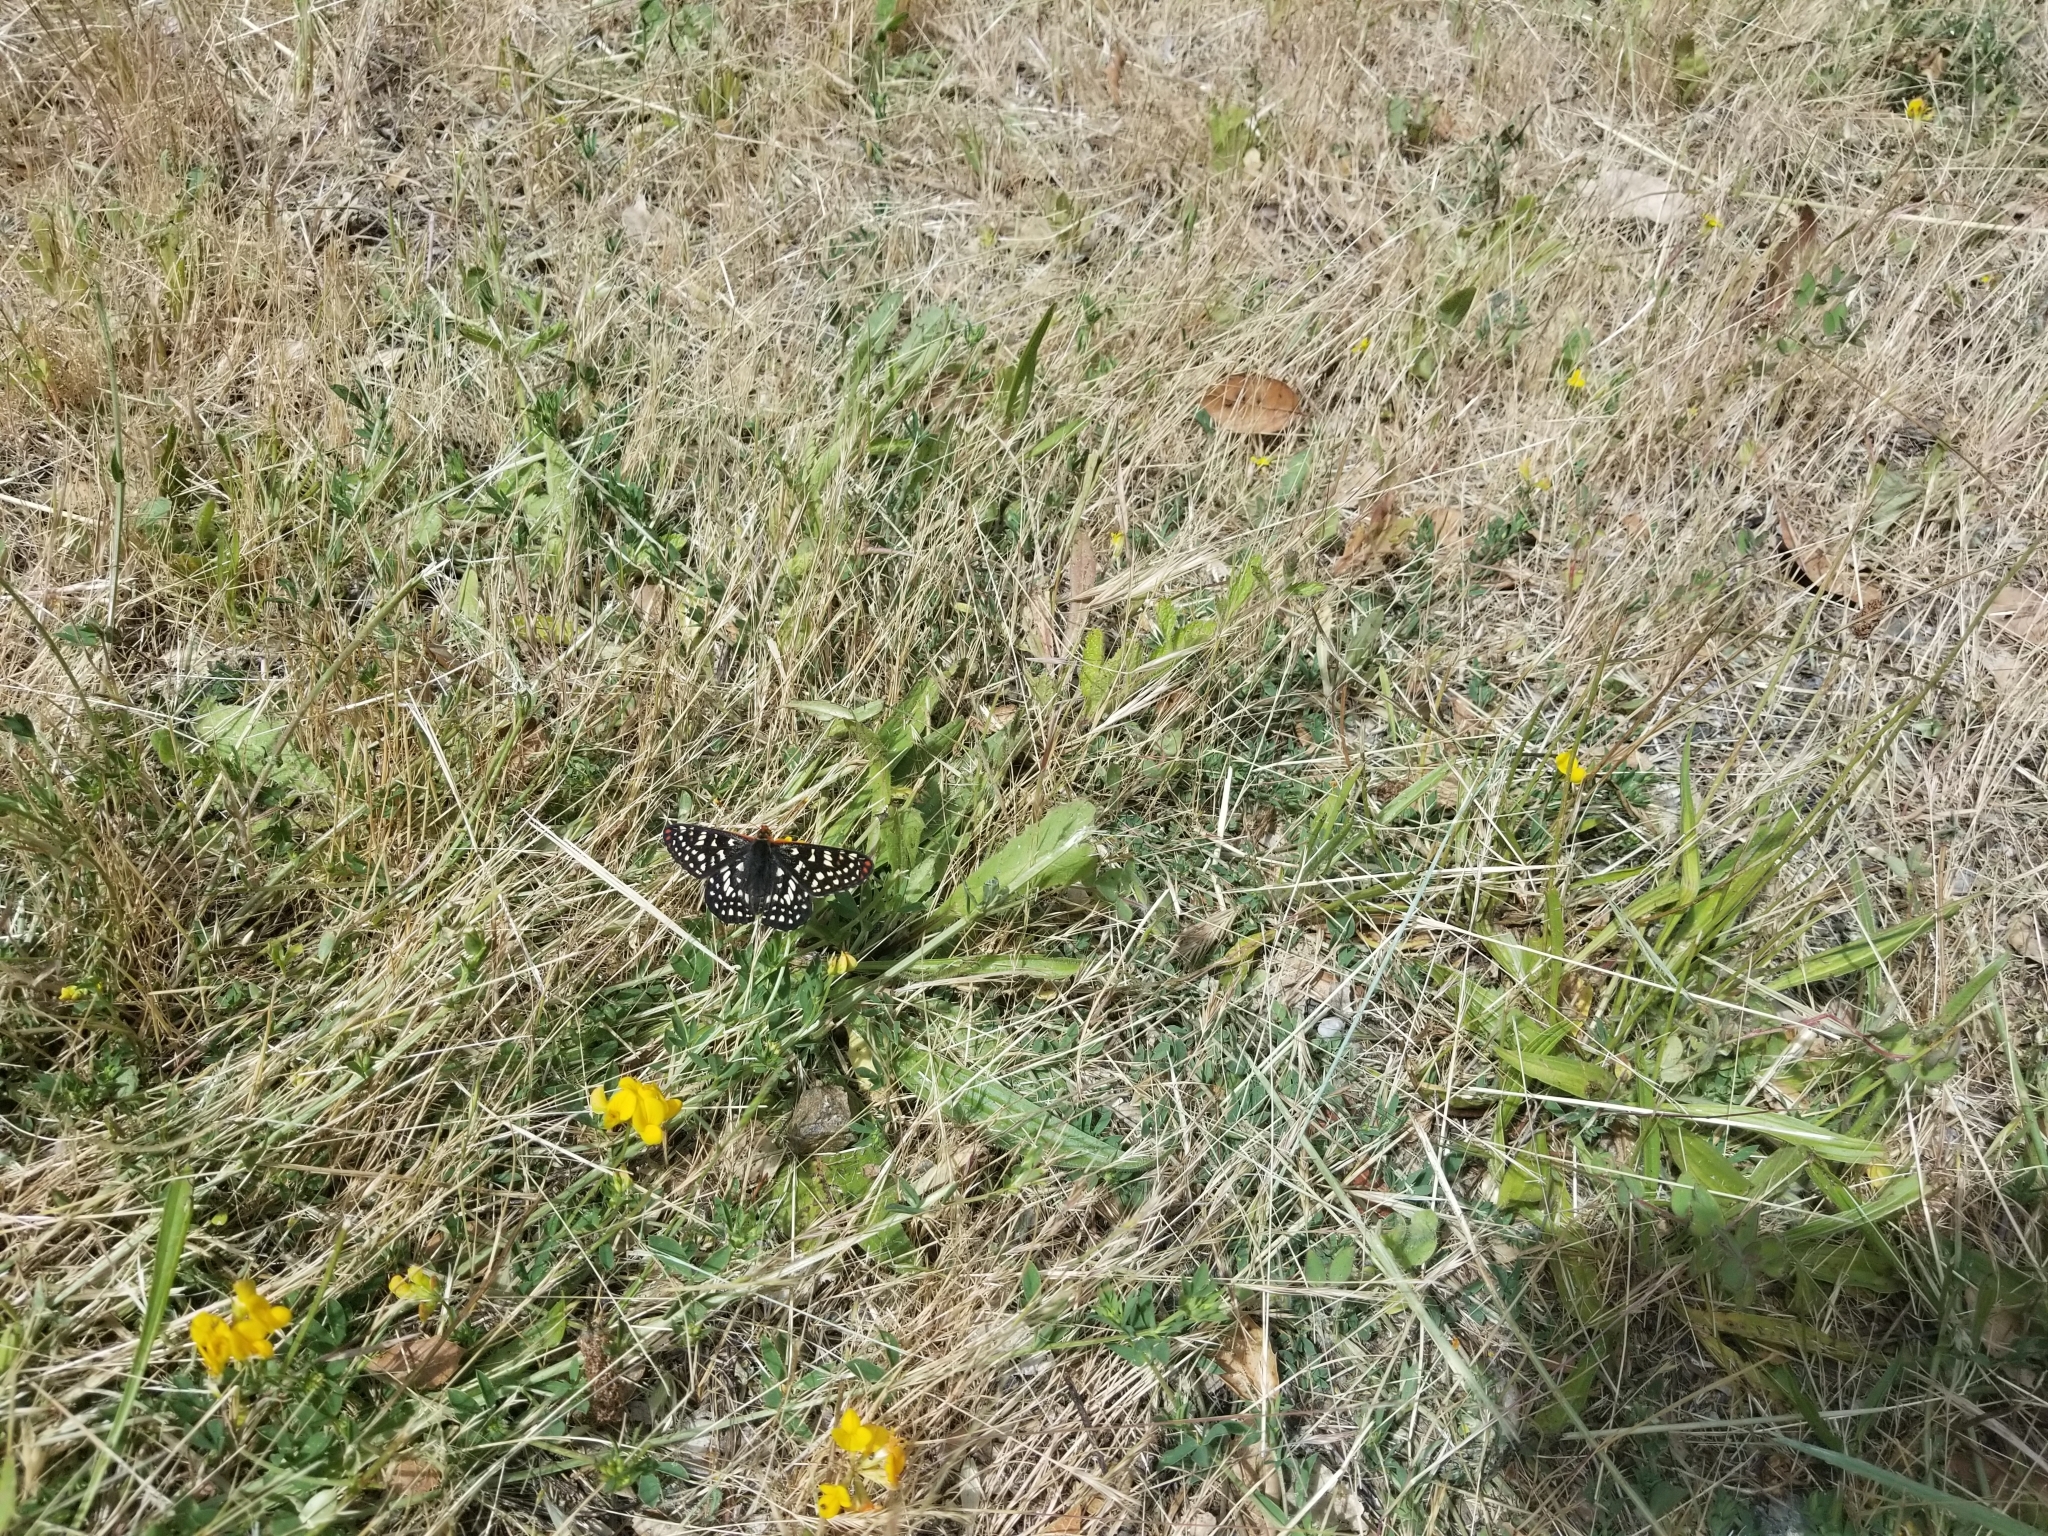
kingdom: Animalia
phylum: Arthropoda
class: Insecta
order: Lepidoptera
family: Nymphalidae
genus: Occidryas
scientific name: Occidryas chalcedona
